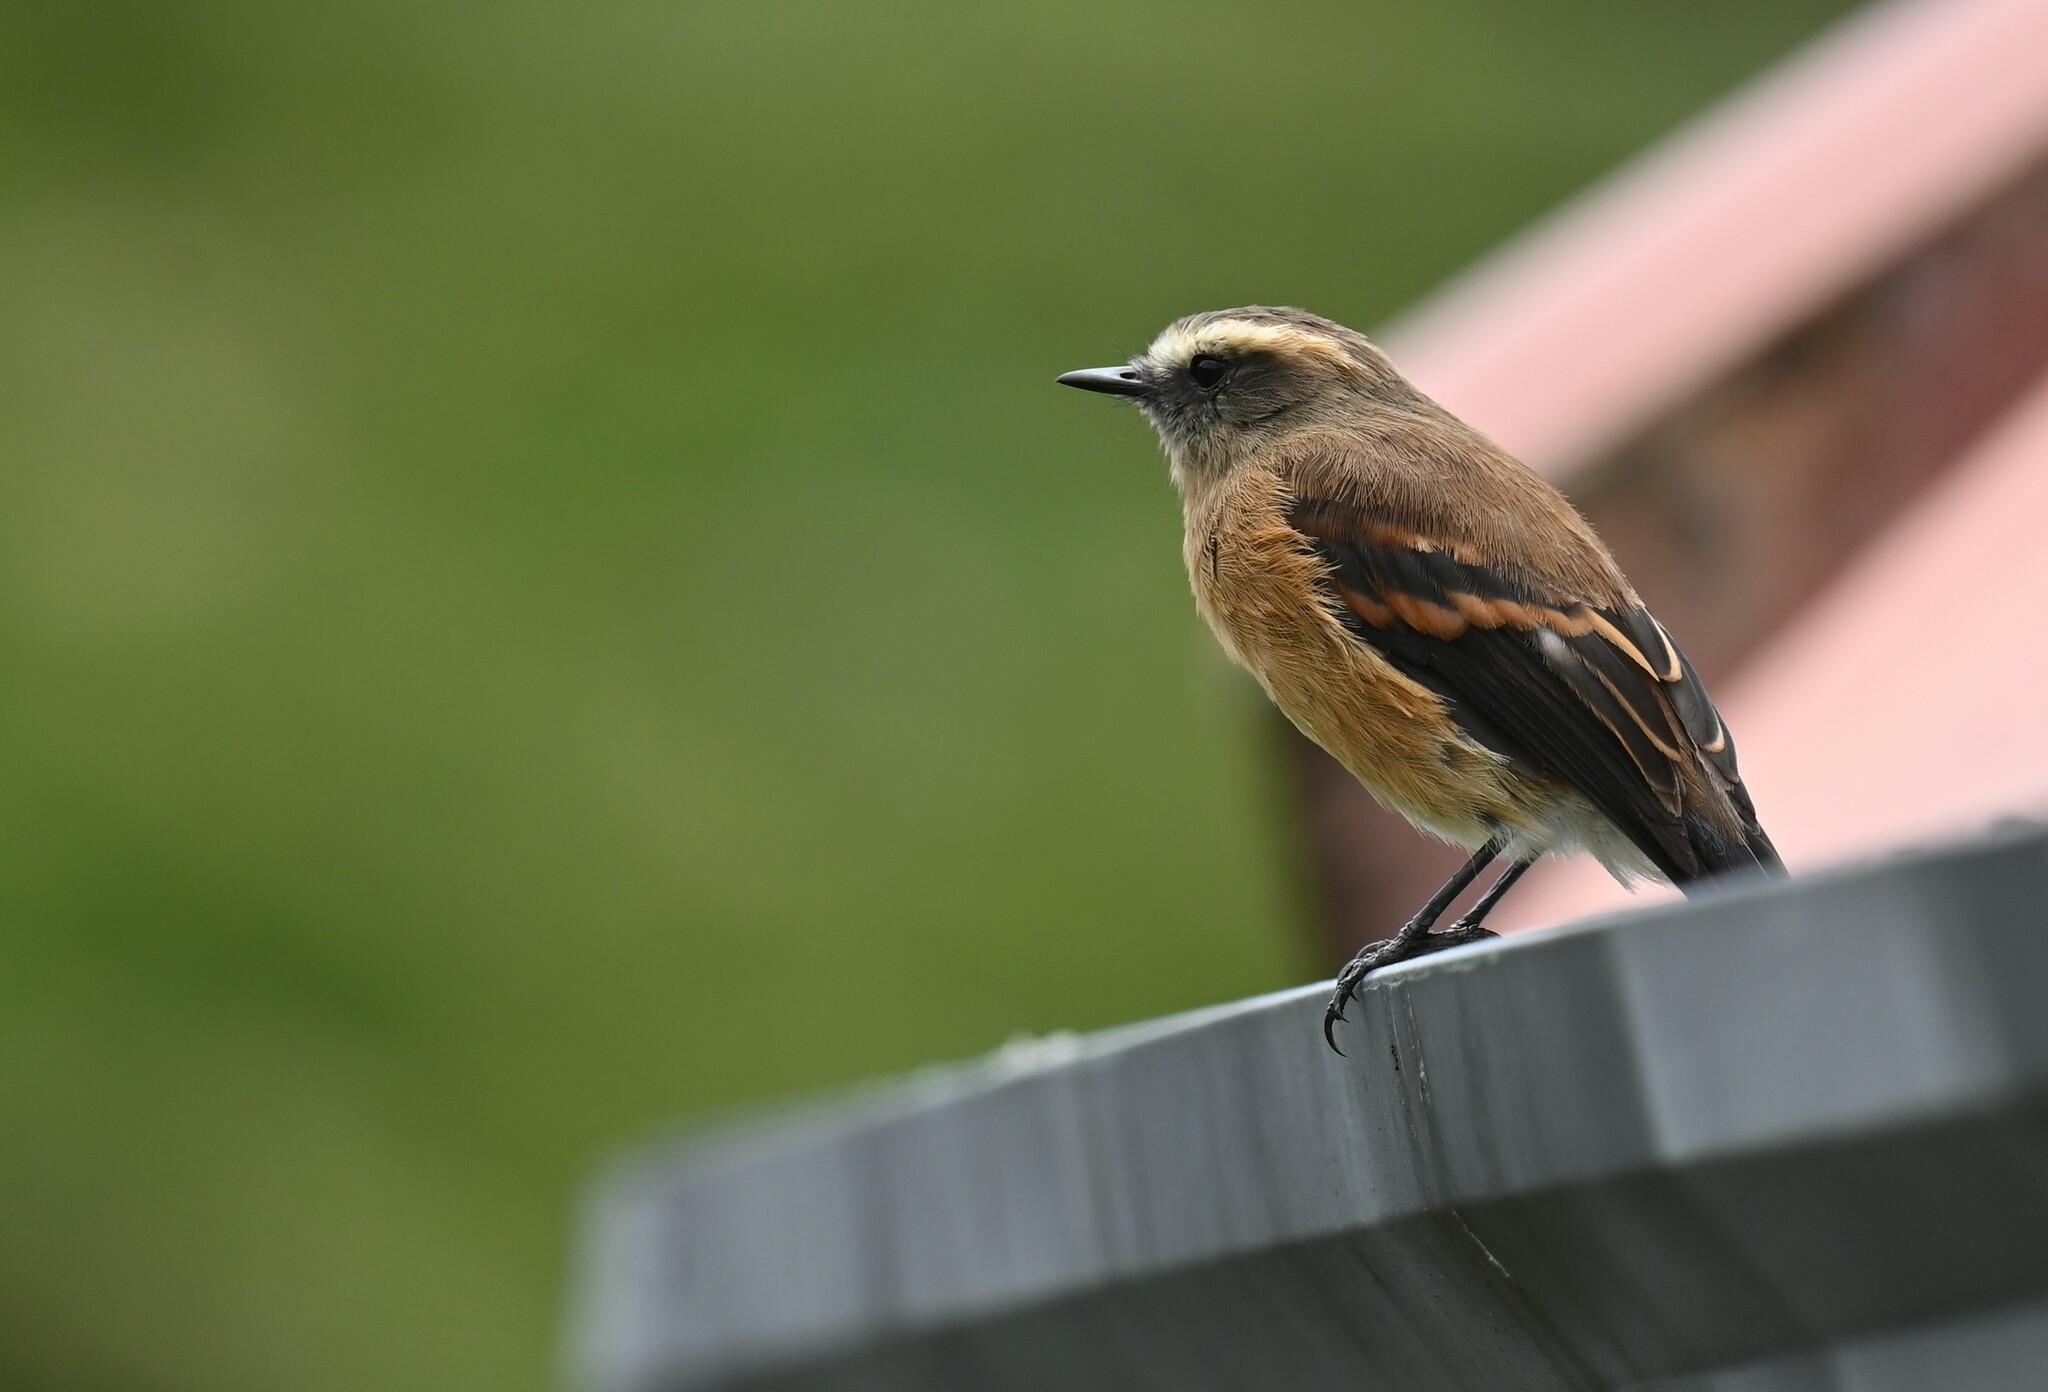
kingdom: Animalia
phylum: Chordata
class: Aves
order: Passeriformes
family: Tyrannidae
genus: Ochthoeca
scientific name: Ochthoeca fumicolor
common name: Brown-backed chat-tyrant
